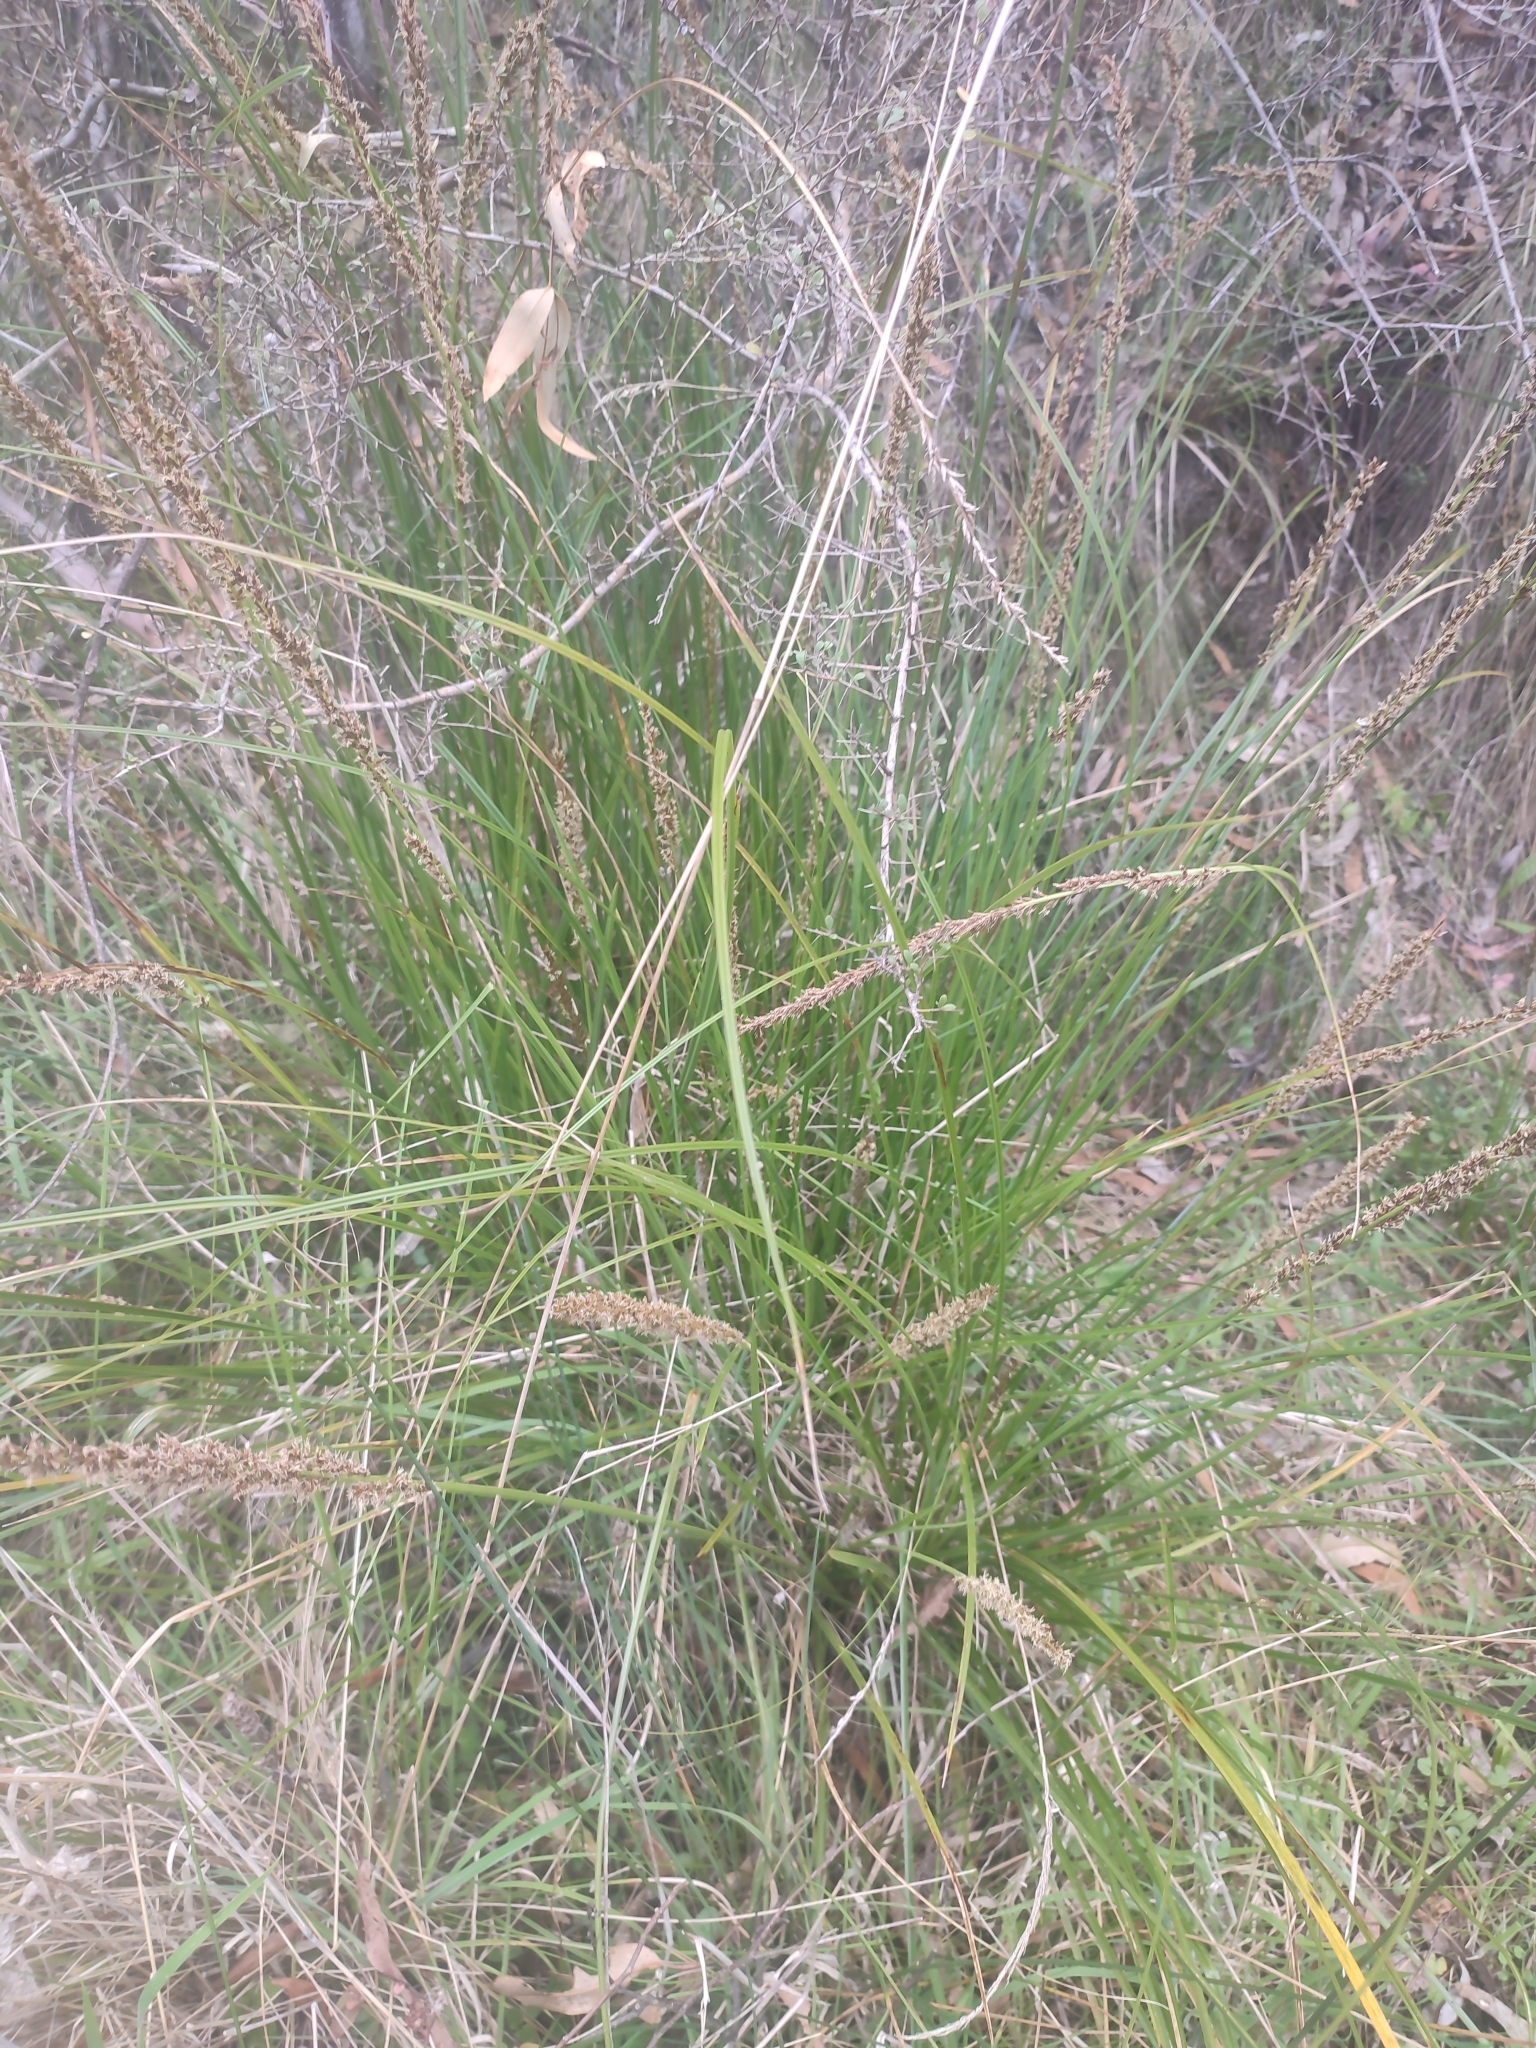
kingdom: Plantae
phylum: Tracheophyta
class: Liliopsida
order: Poales
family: Cyperaceae
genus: Carex
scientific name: Carex appressa
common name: Tussock sedge
